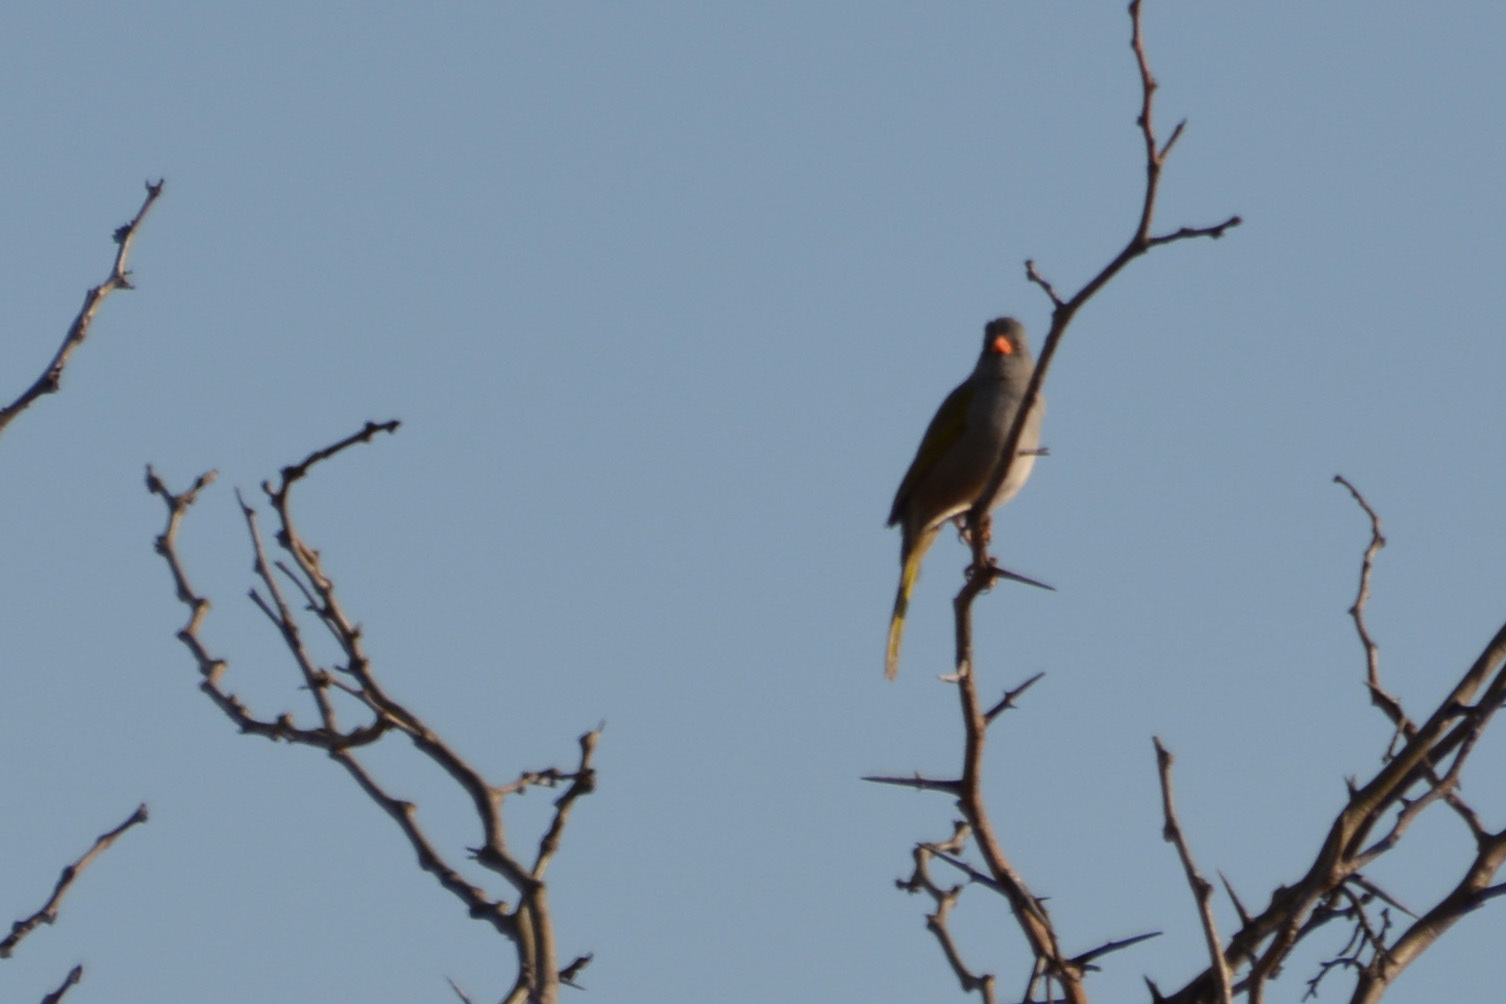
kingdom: Animalia
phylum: Chordata
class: Aves
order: Passeriformes
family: Thraupidae
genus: Embernagra
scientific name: Embernagra platensis
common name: Pampa finch
